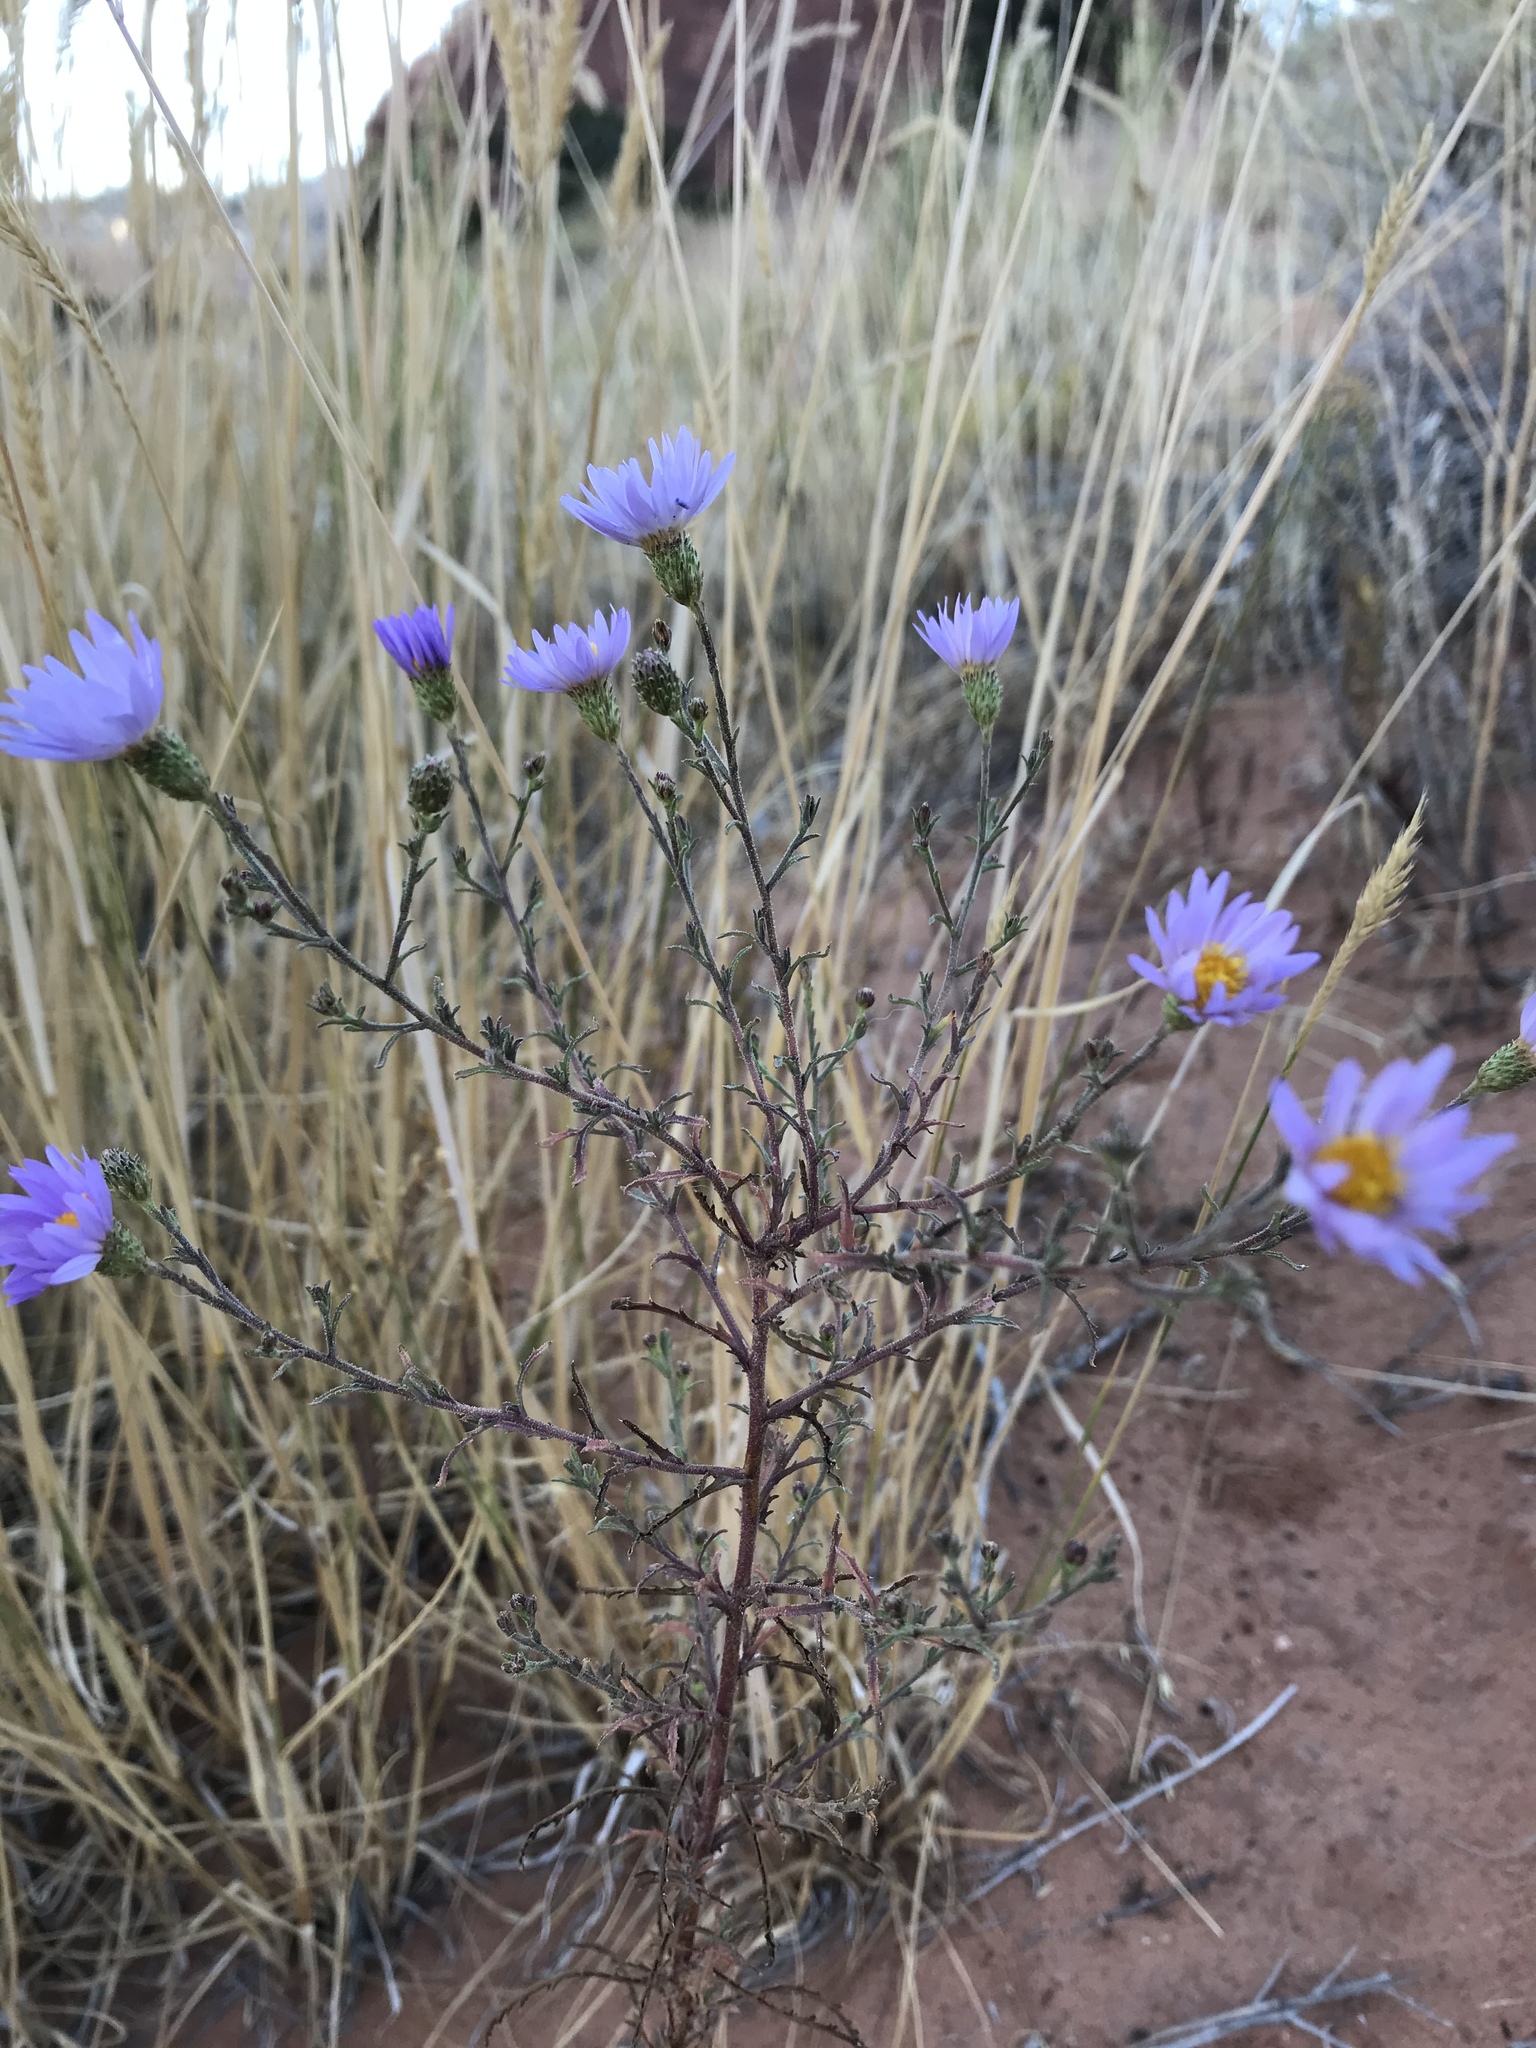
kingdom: Plantae
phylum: Tracheophyta
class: Magnoliopsida
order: Asterales
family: Asteraceae
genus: Dieteria
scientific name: Dieteria canescens
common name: Hoary-aster
